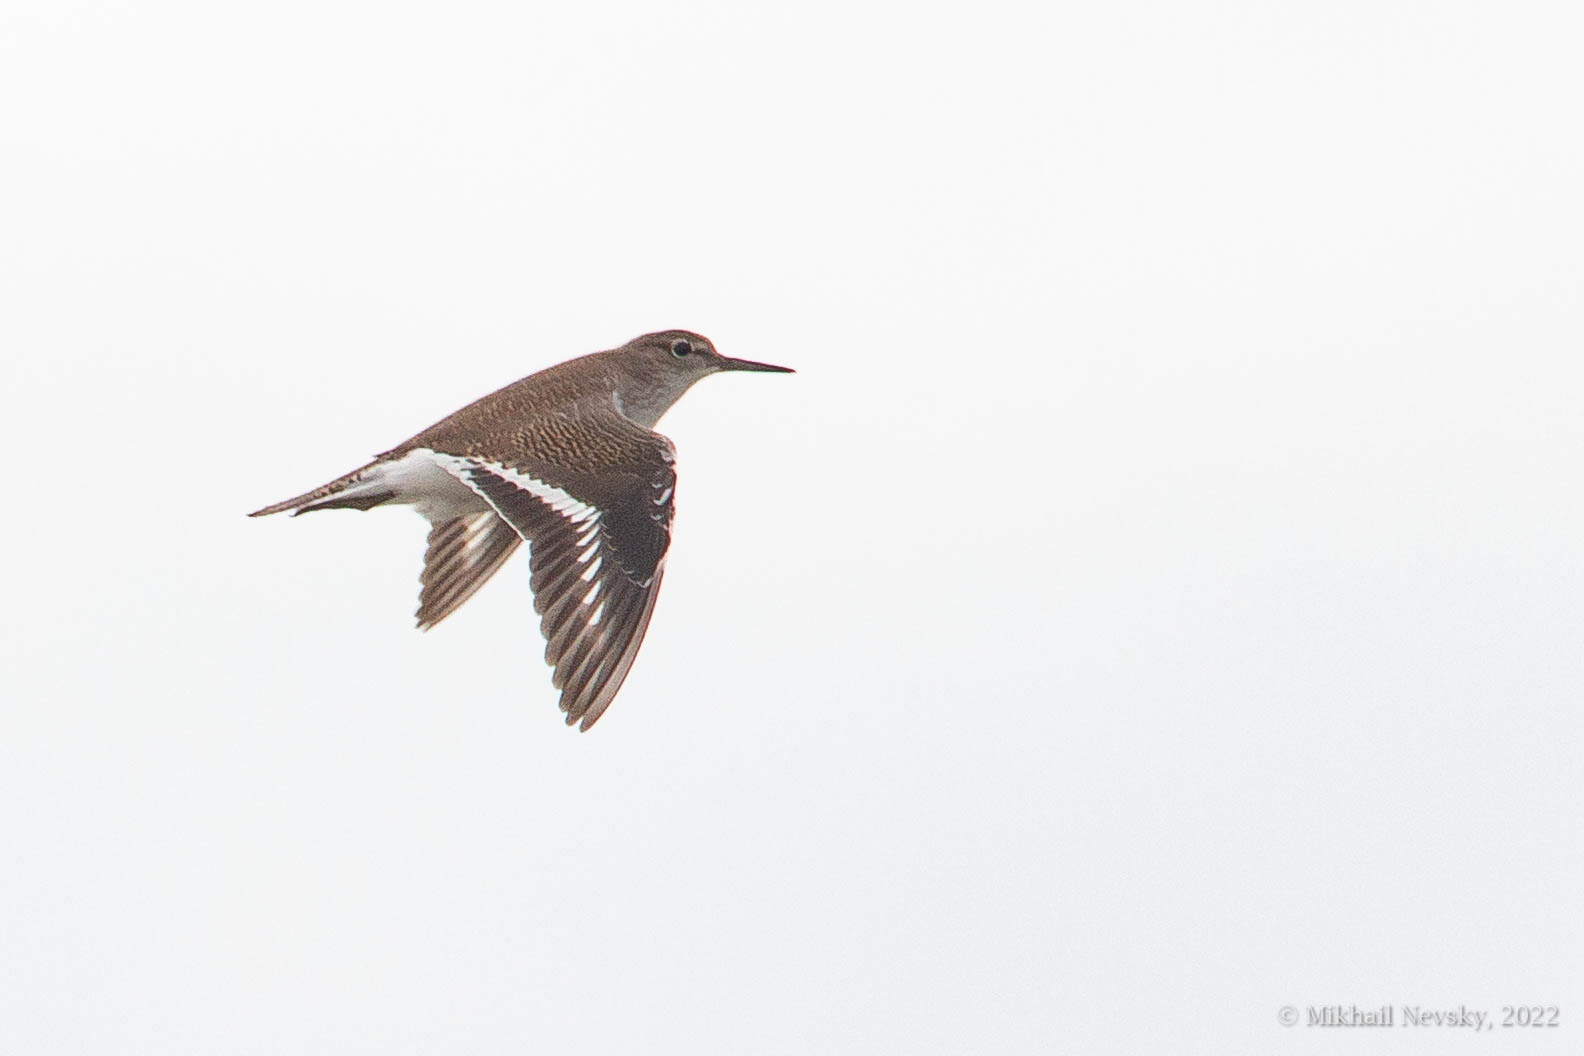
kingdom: Animalia
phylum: Chordata
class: Aves
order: Charadriiformes
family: Scolopacidae
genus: Actitis
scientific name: Actitis hypoleucos
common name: Common sandpiper
